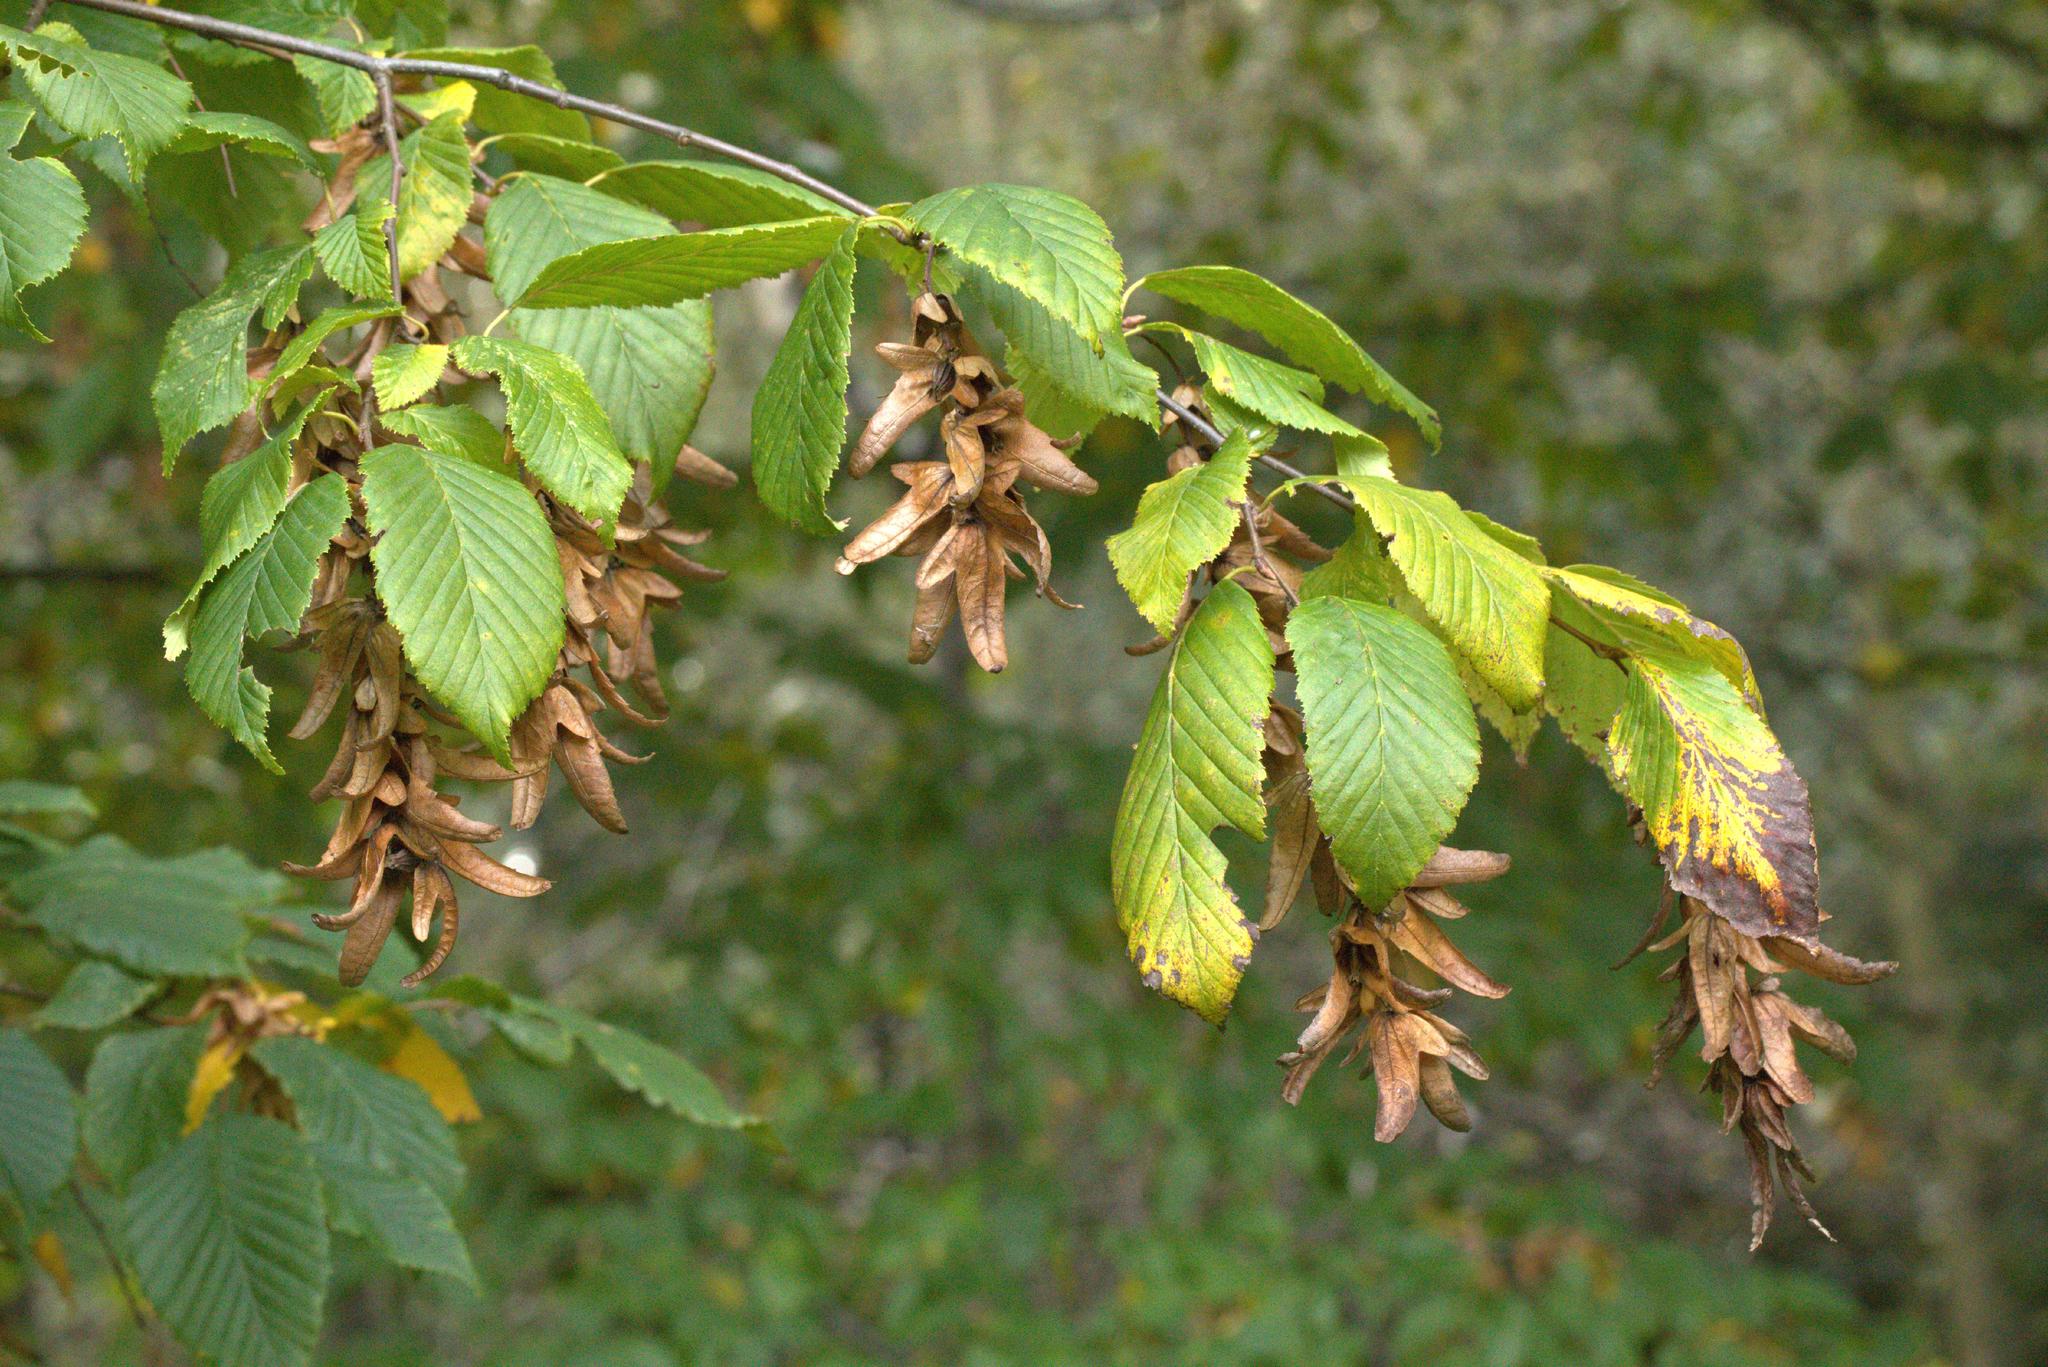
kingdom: Plantae
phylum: Tracheophyta
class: Magnoliopsida
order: Fagales
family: Betulaceae
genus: Carpinus
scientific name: Carpinus betulus
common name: Hornbeam
